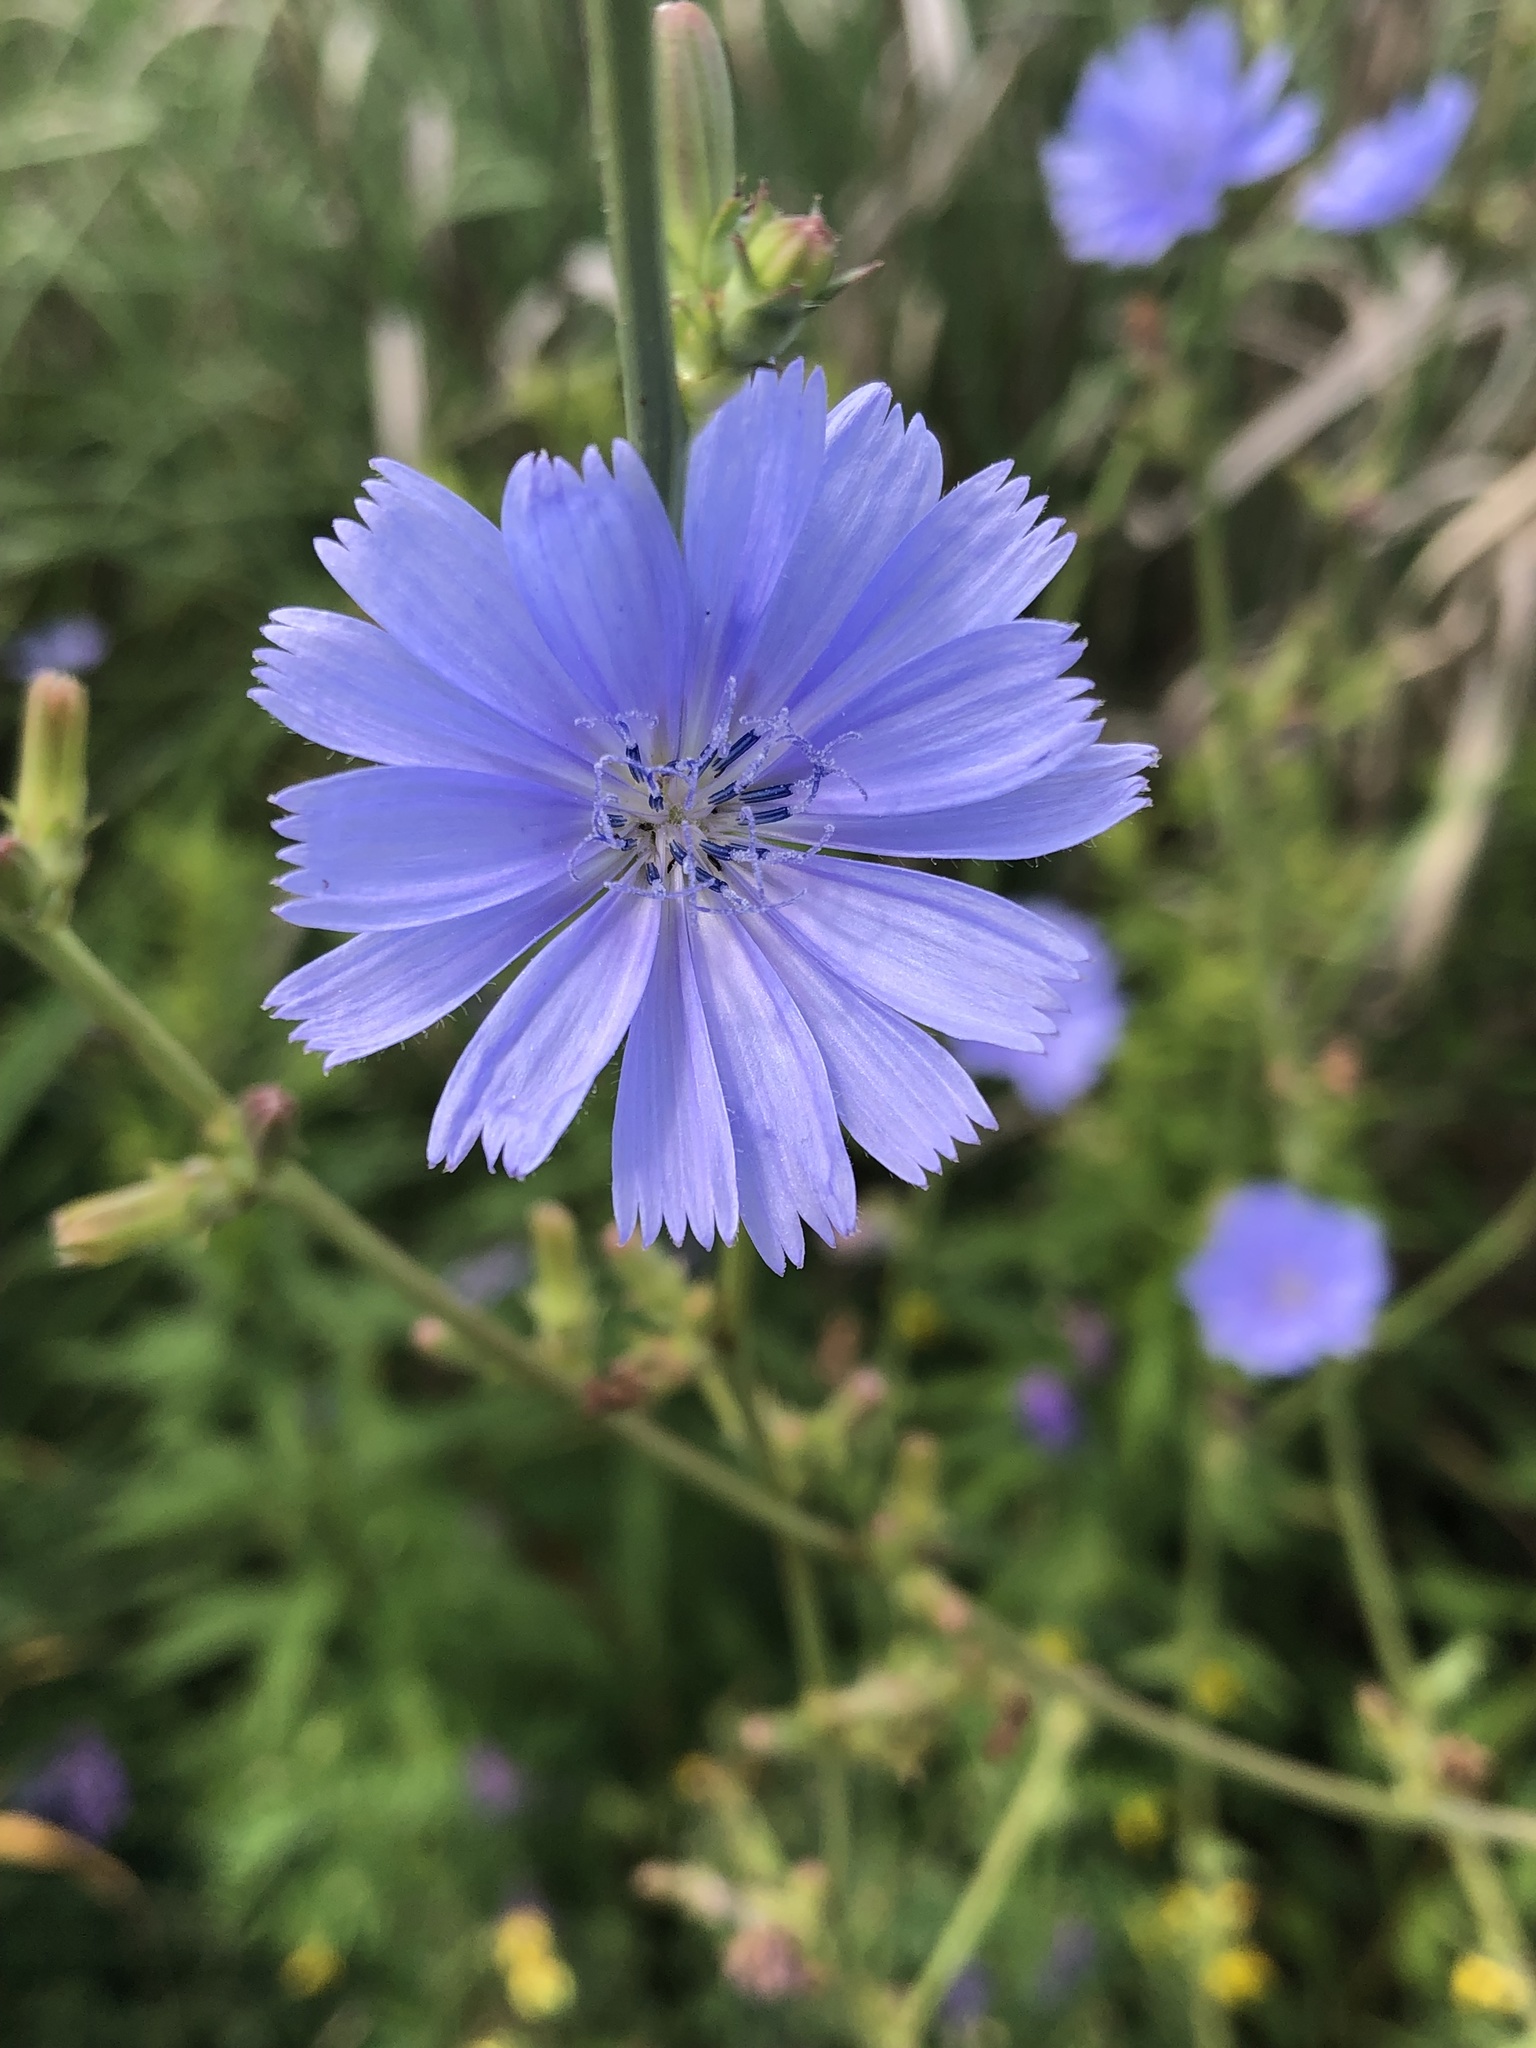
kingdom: Plantae
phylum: Tracheophyta
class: Magnoliopsida
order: Asterales
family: Asteraceae
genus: Cichorium
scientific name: Cichorium intybus
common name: Chicory
